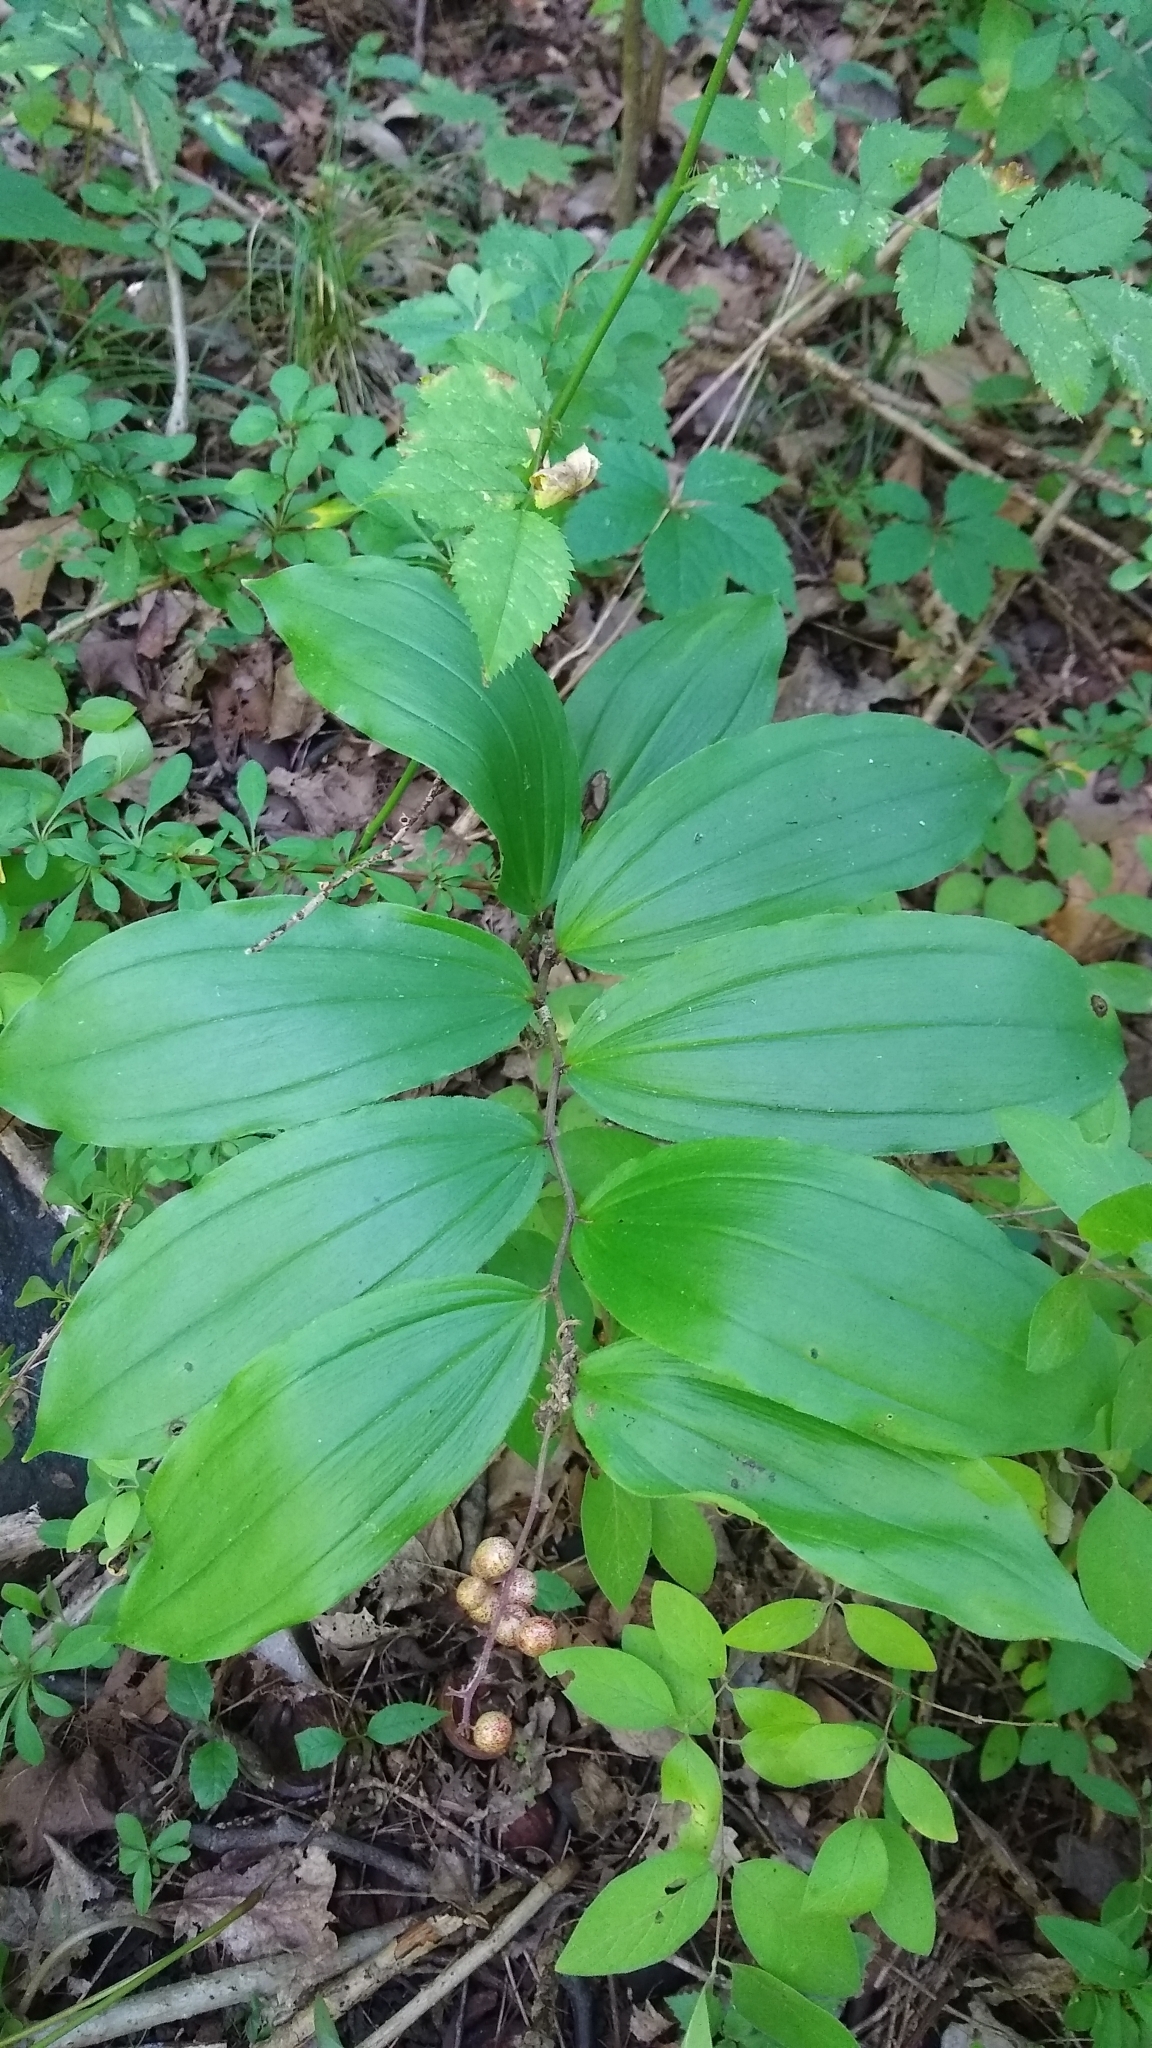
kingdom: Plantae
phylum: Tracheophyta
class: Liliopsida
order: Asparagales
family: Asparagaceae
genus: Maianthemum
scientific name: Maianthemum racemosum
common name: False spikenard
